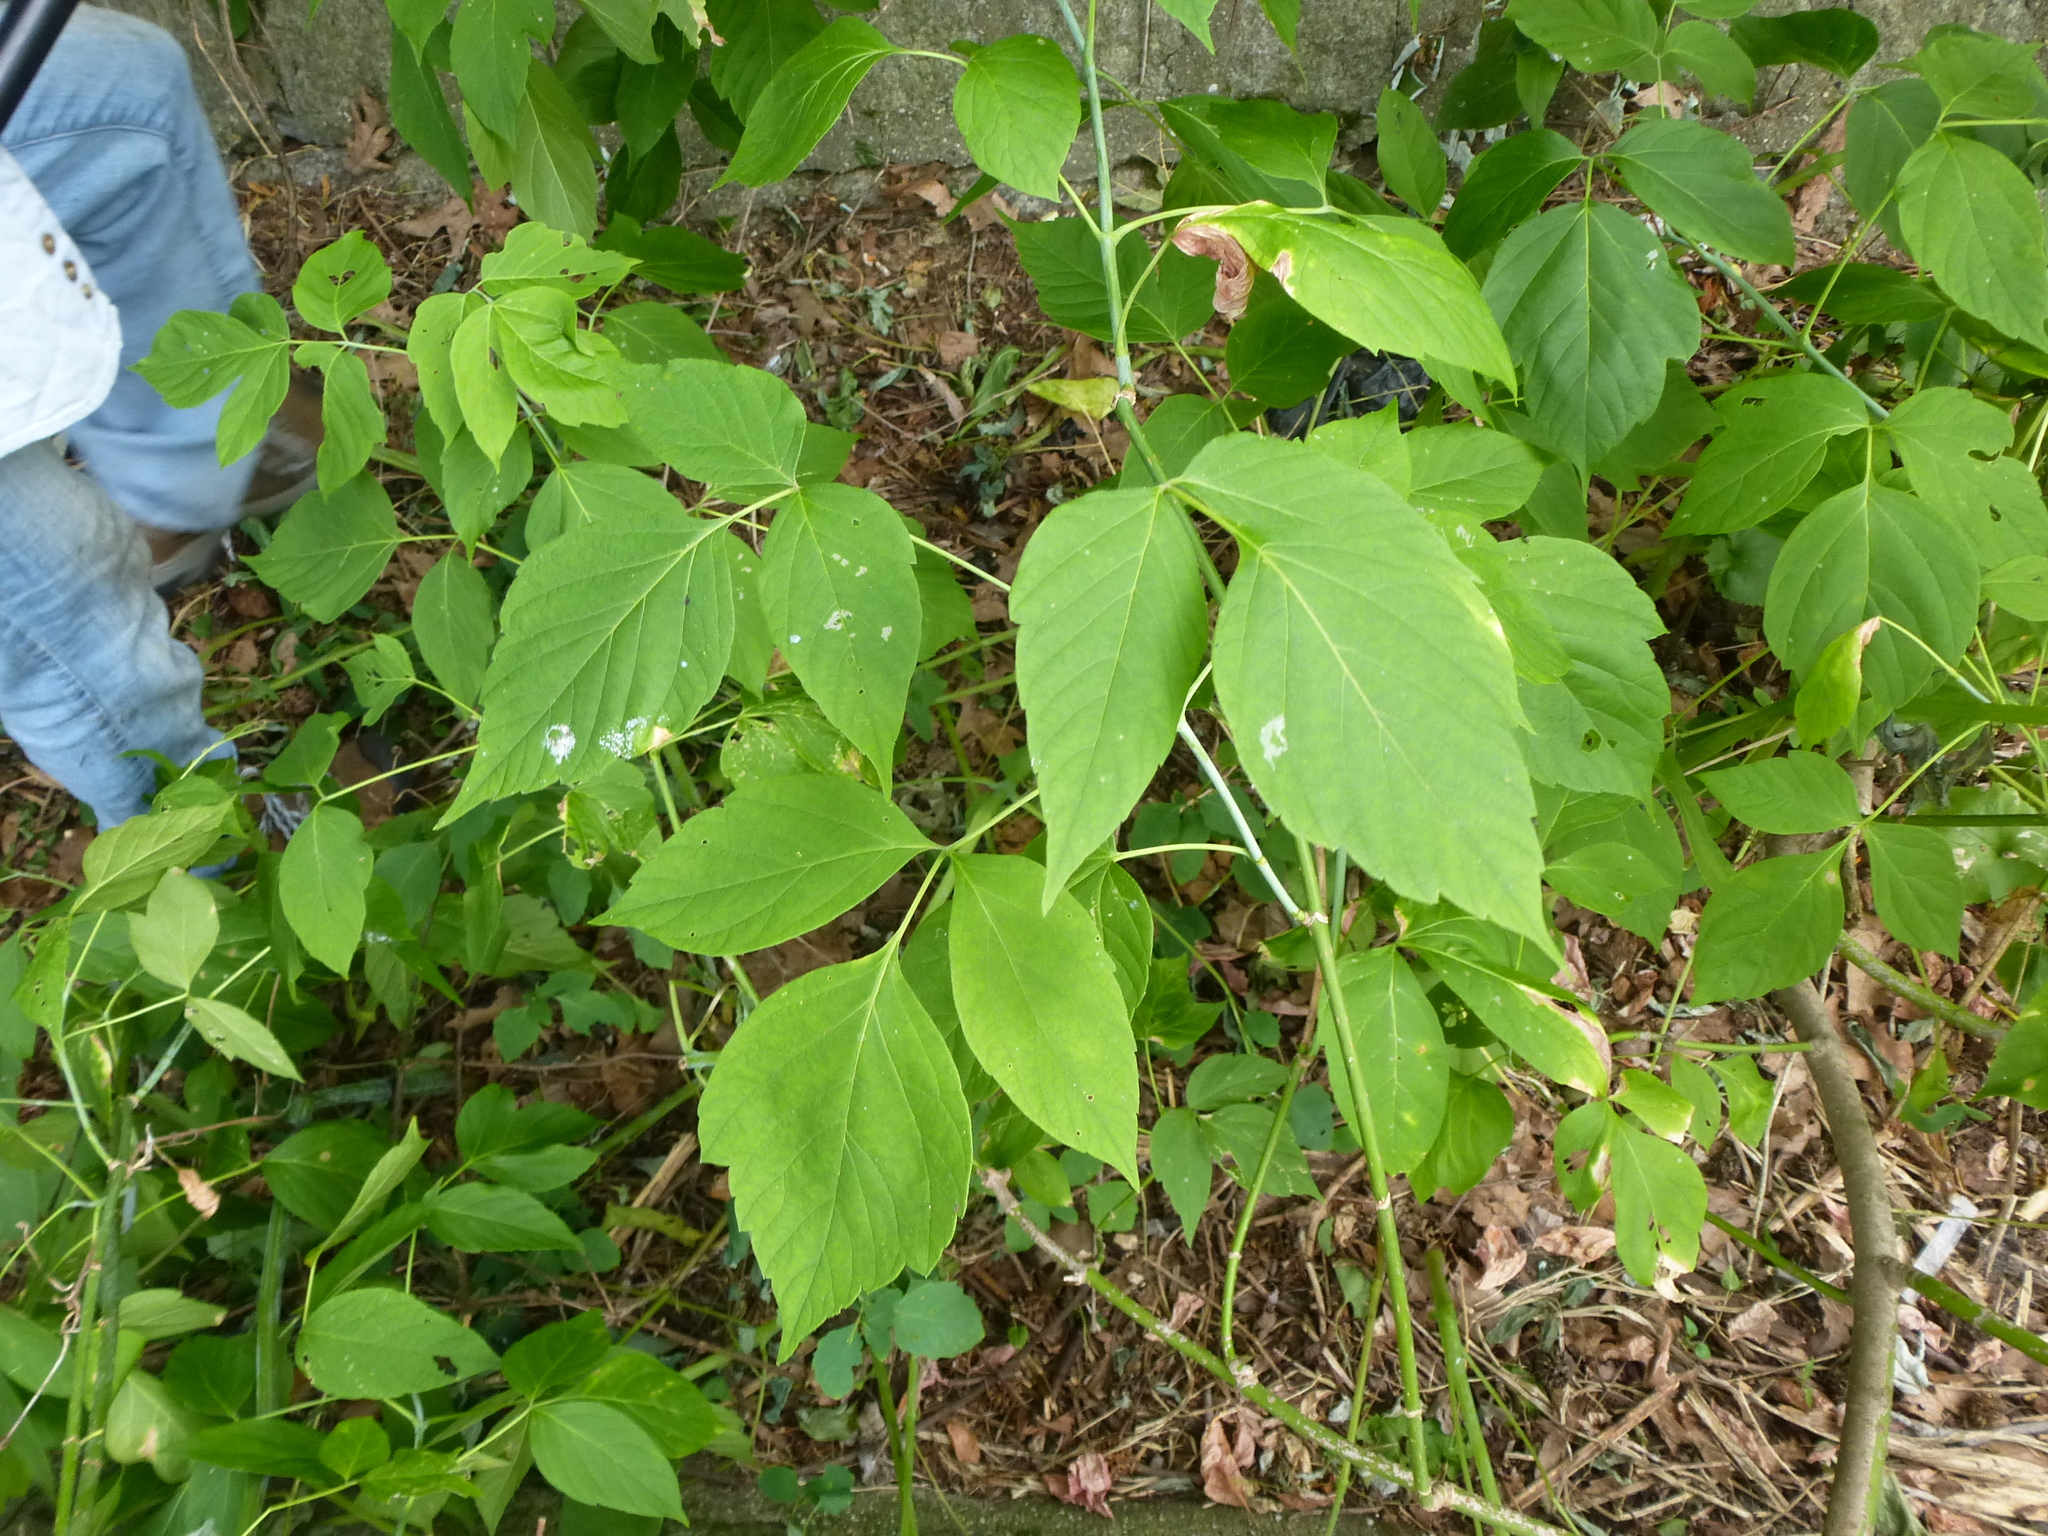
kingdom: Plantae
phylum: Tracheophyta
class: Magnoliopsida
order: Sapindales
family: Sapindaceae
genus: Acer
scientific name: Acer negundo
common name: Ashleaf maple
